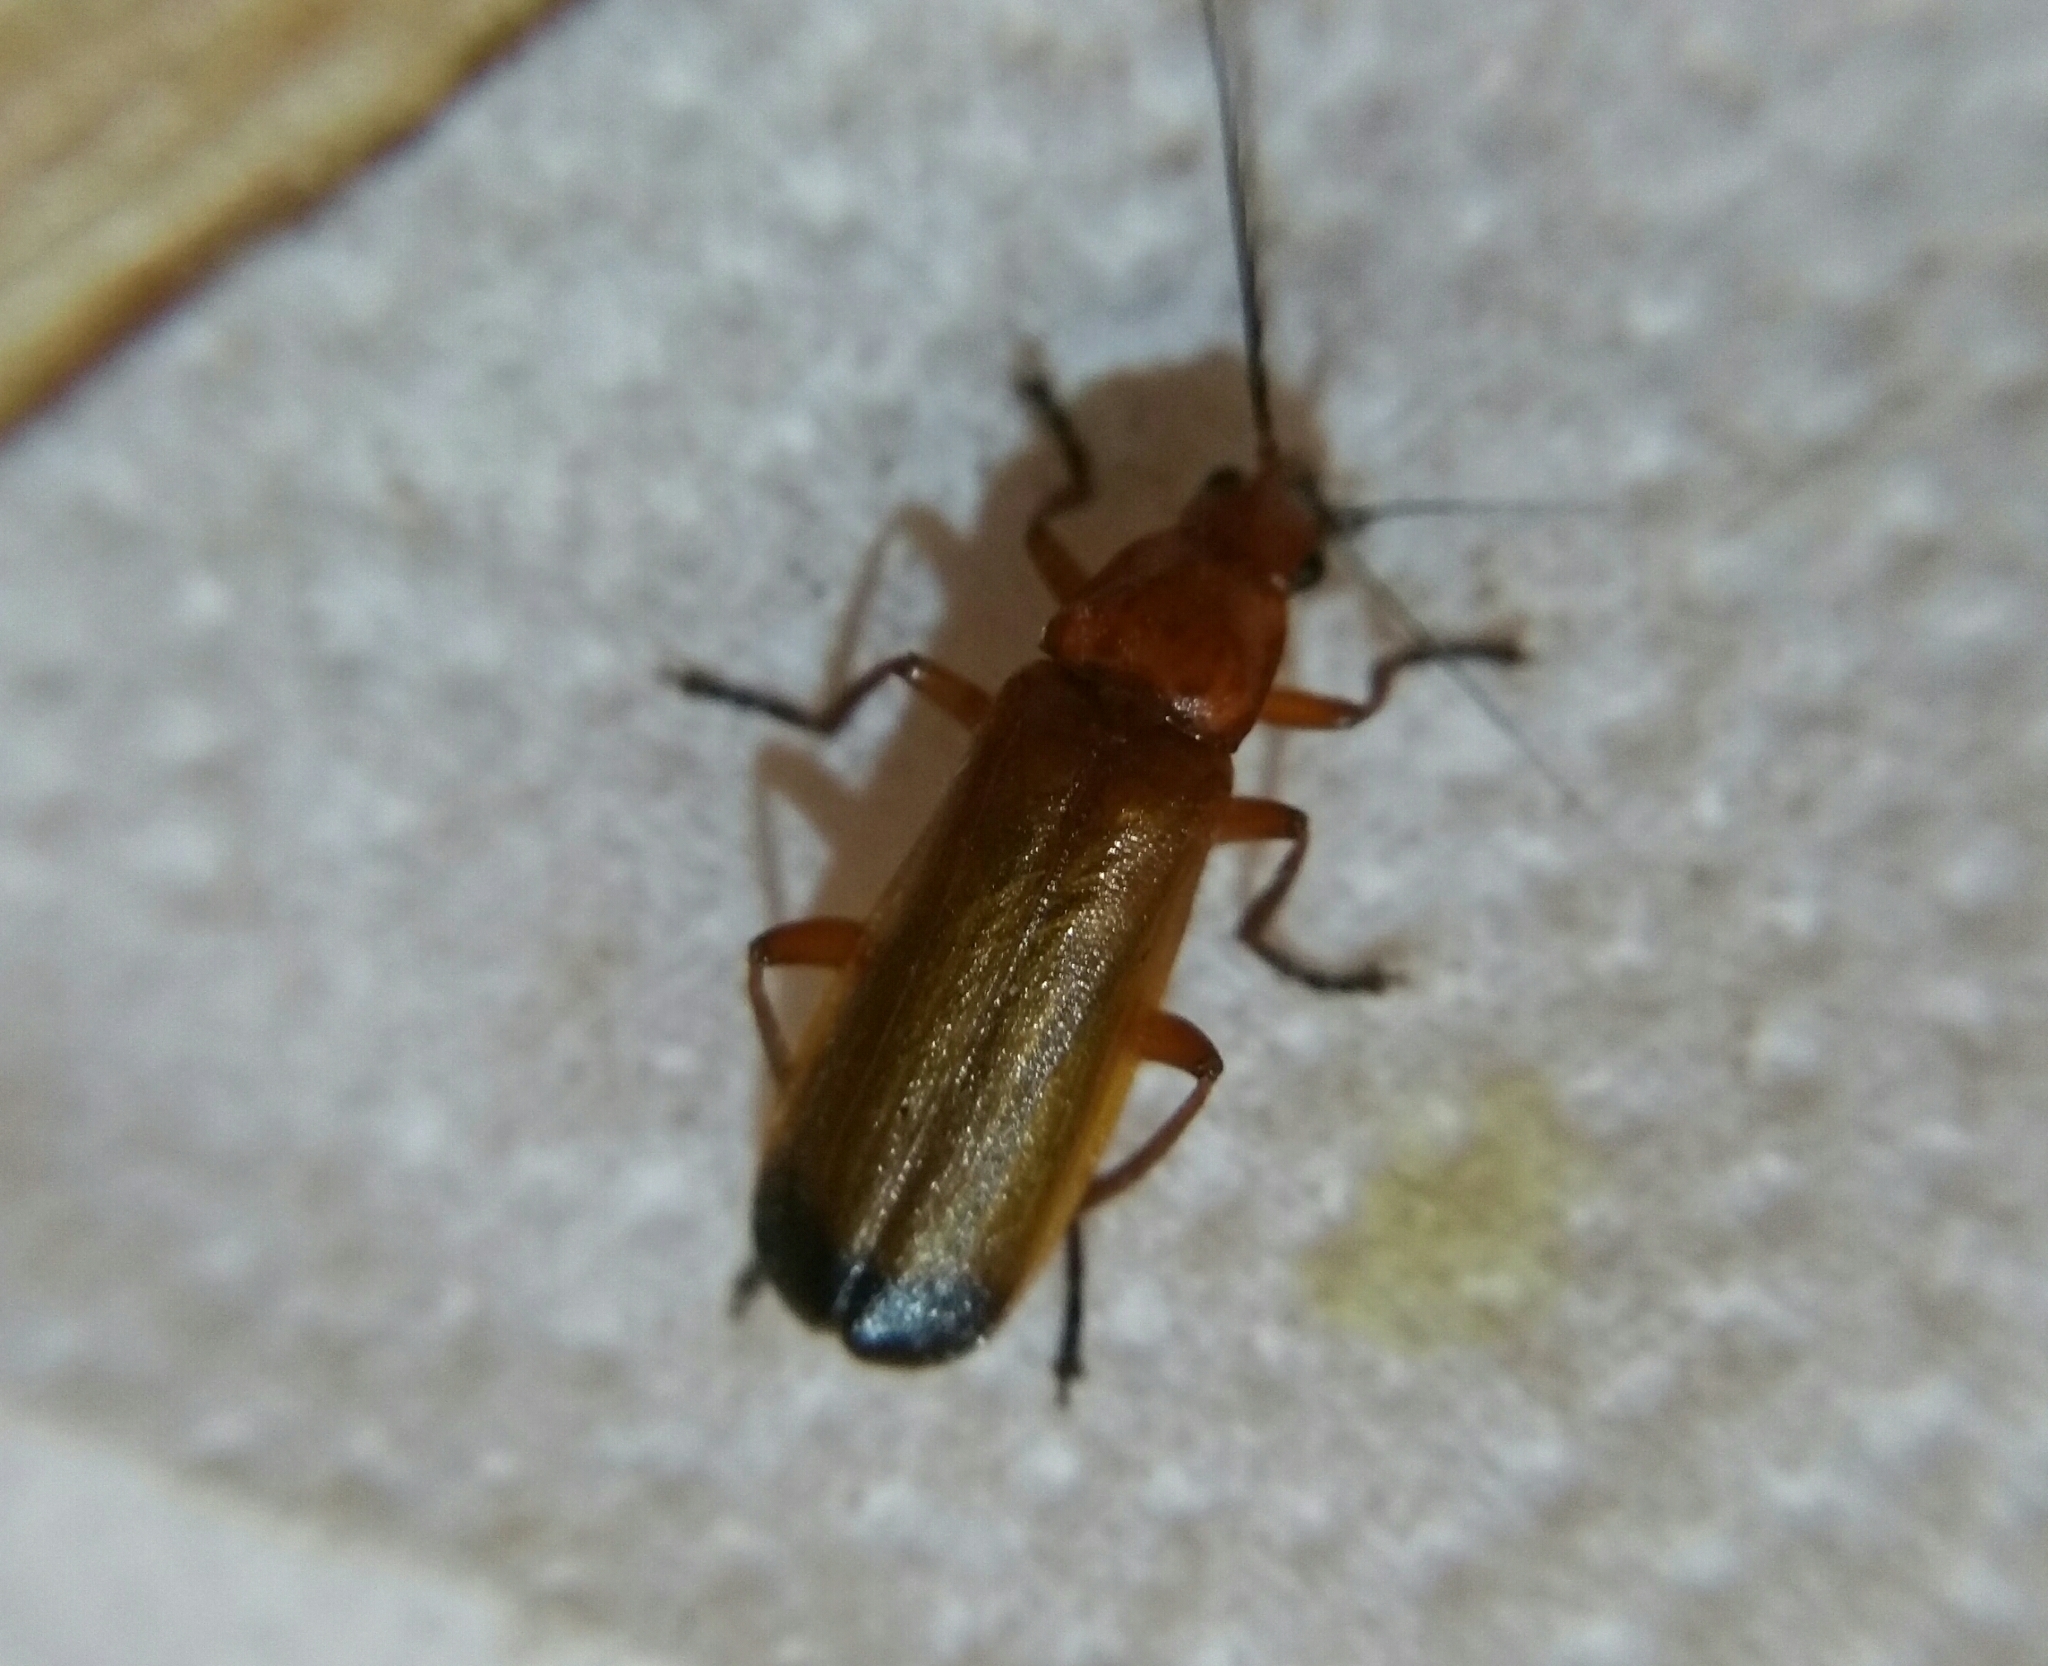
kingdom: Animalia
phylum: Arthropoda
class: Insecta
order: Coleoptera
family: Cantharidae
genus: Rhagonycha
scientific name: Rhagonycha fulva
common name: Common red soldier beetle
